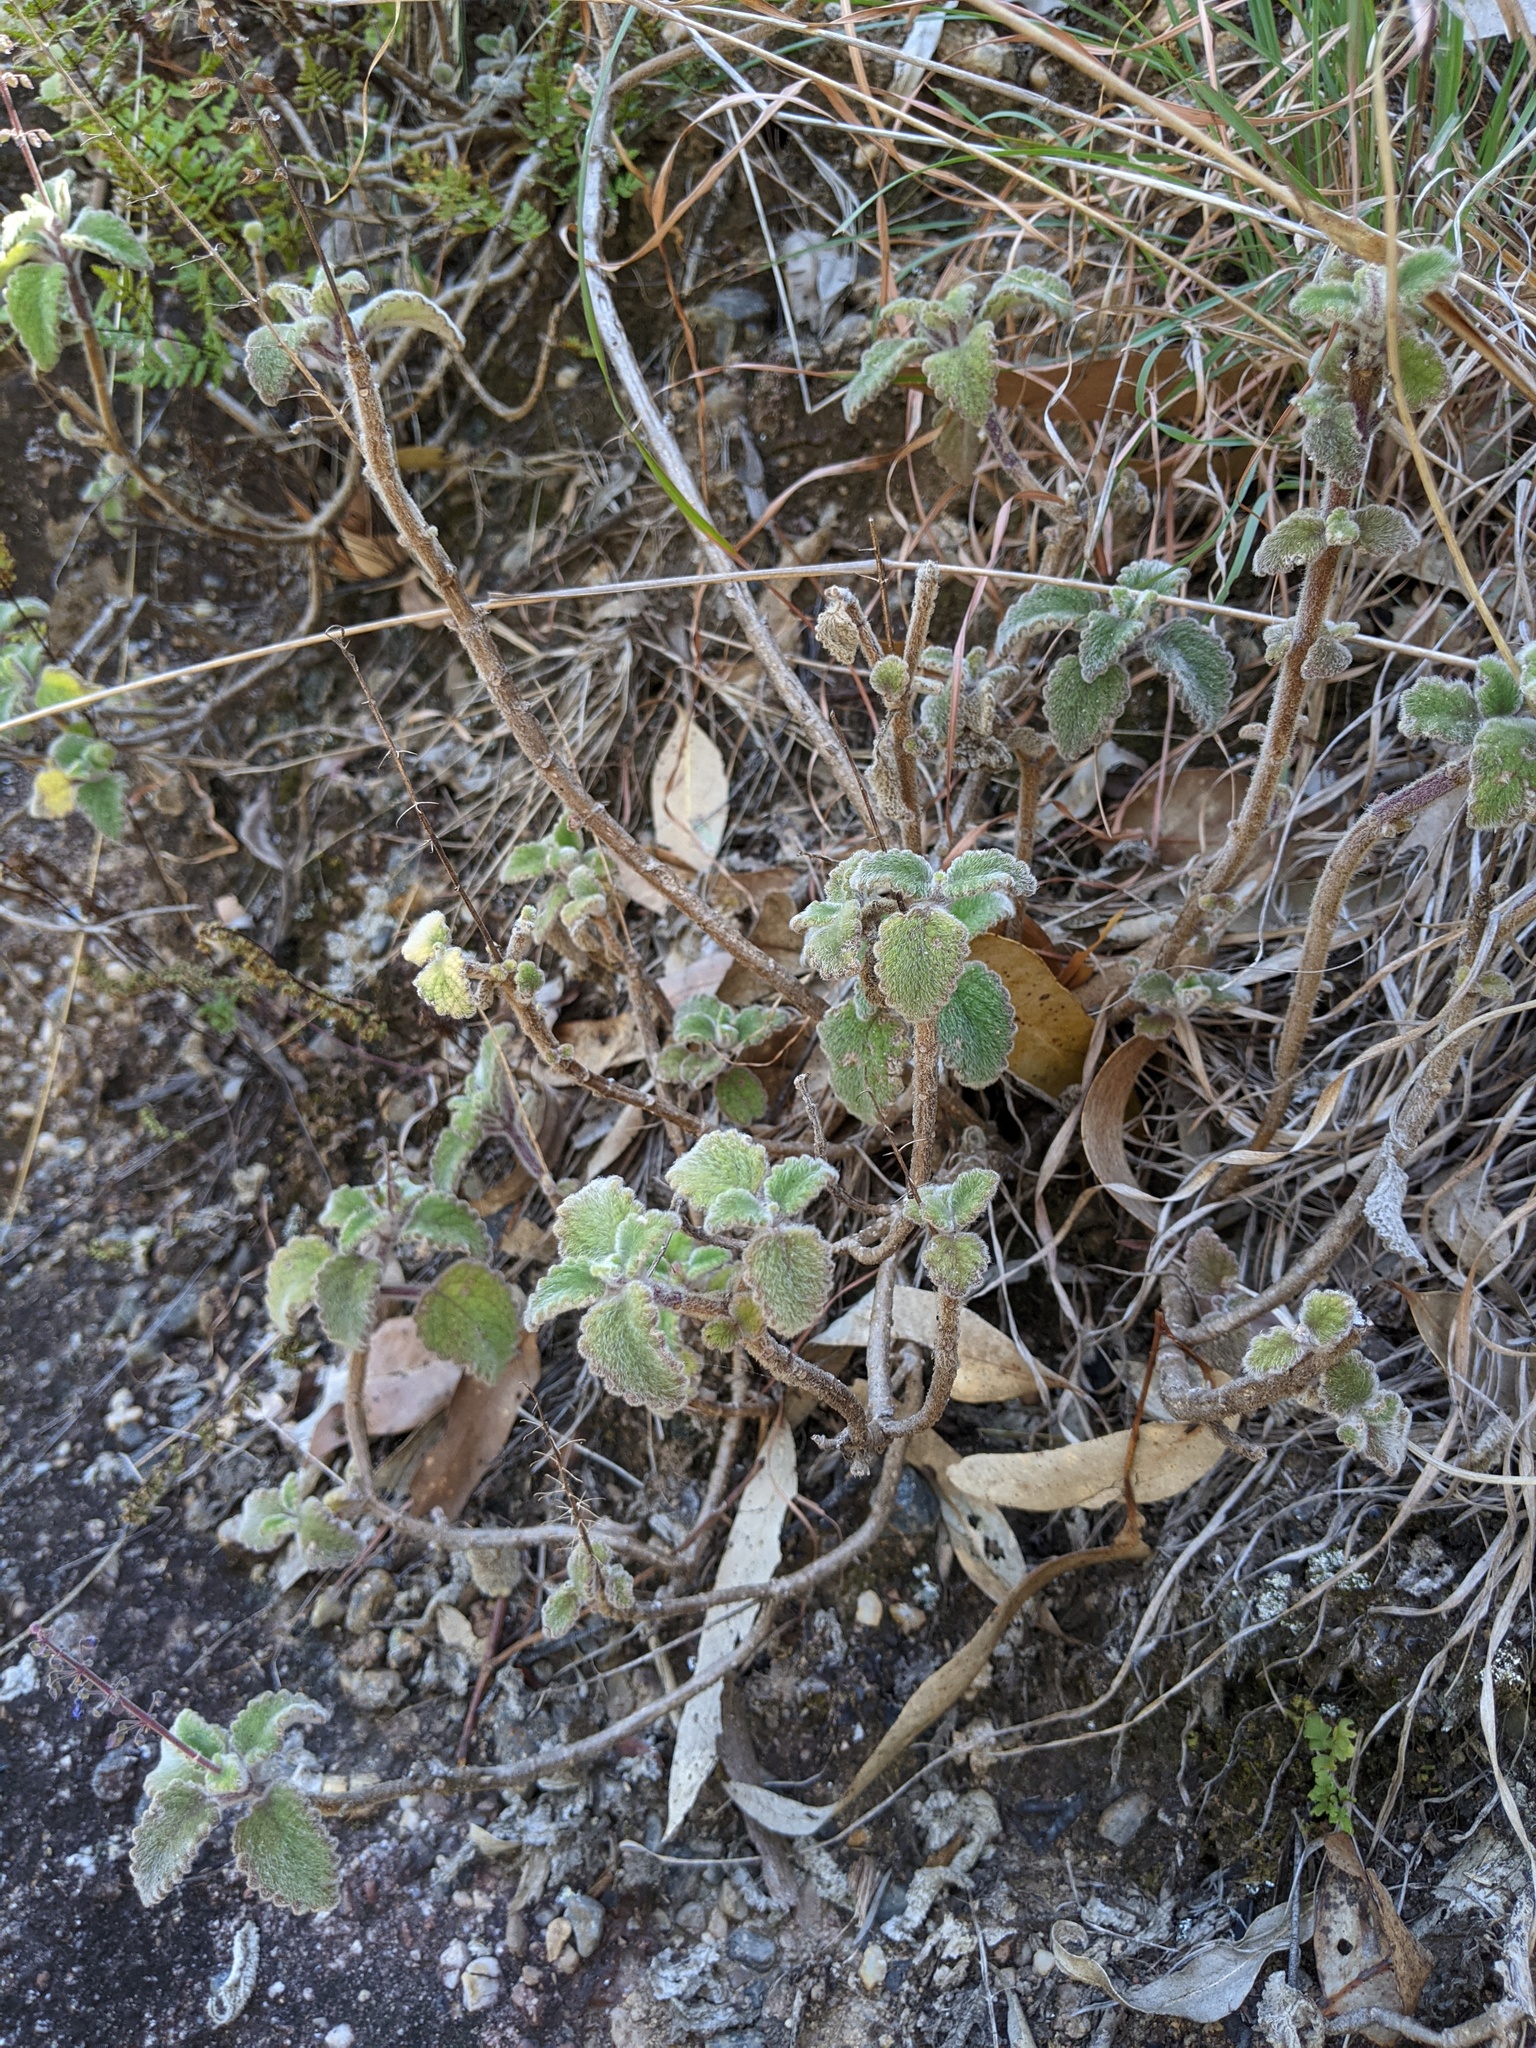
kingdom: Plantae
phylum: Tracheophyta
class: Magnoliopsida
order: Lamiales
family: Lamiaceae
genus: Coleus
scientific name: Coleus habrophyllus
